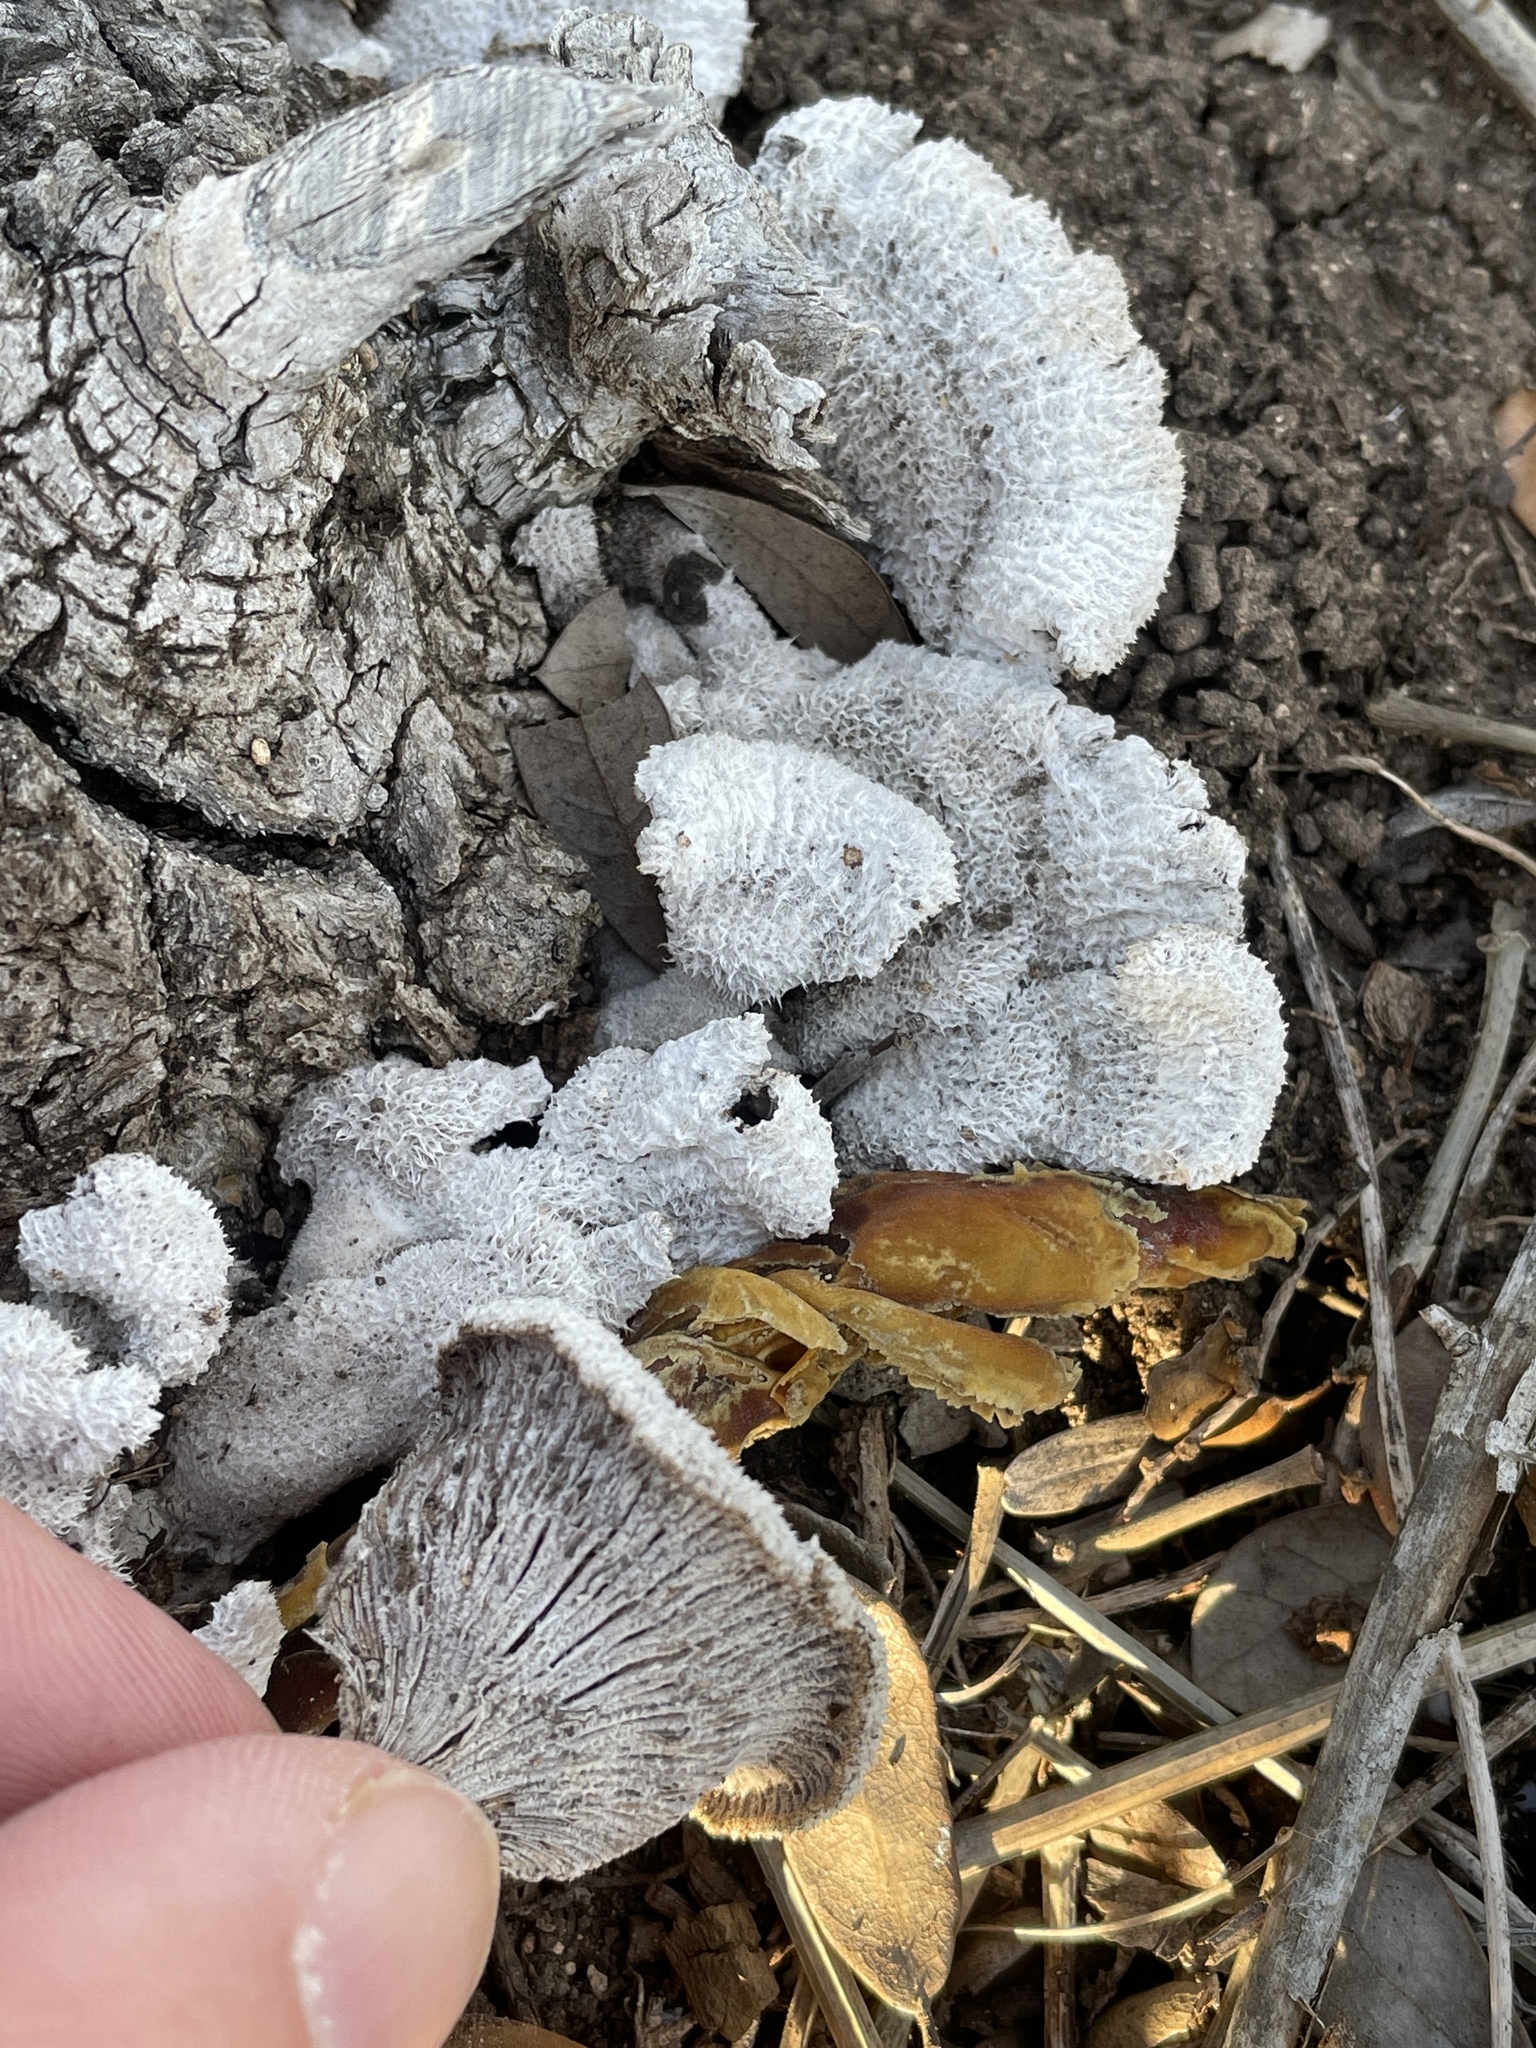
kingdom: Fungi
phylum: Basidiomycota
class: Agaricomycetes
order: Agaricales
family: Schizophyllaceae
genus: Schizophyllum
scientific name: Schizophyllum commune
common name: Common porecrust
